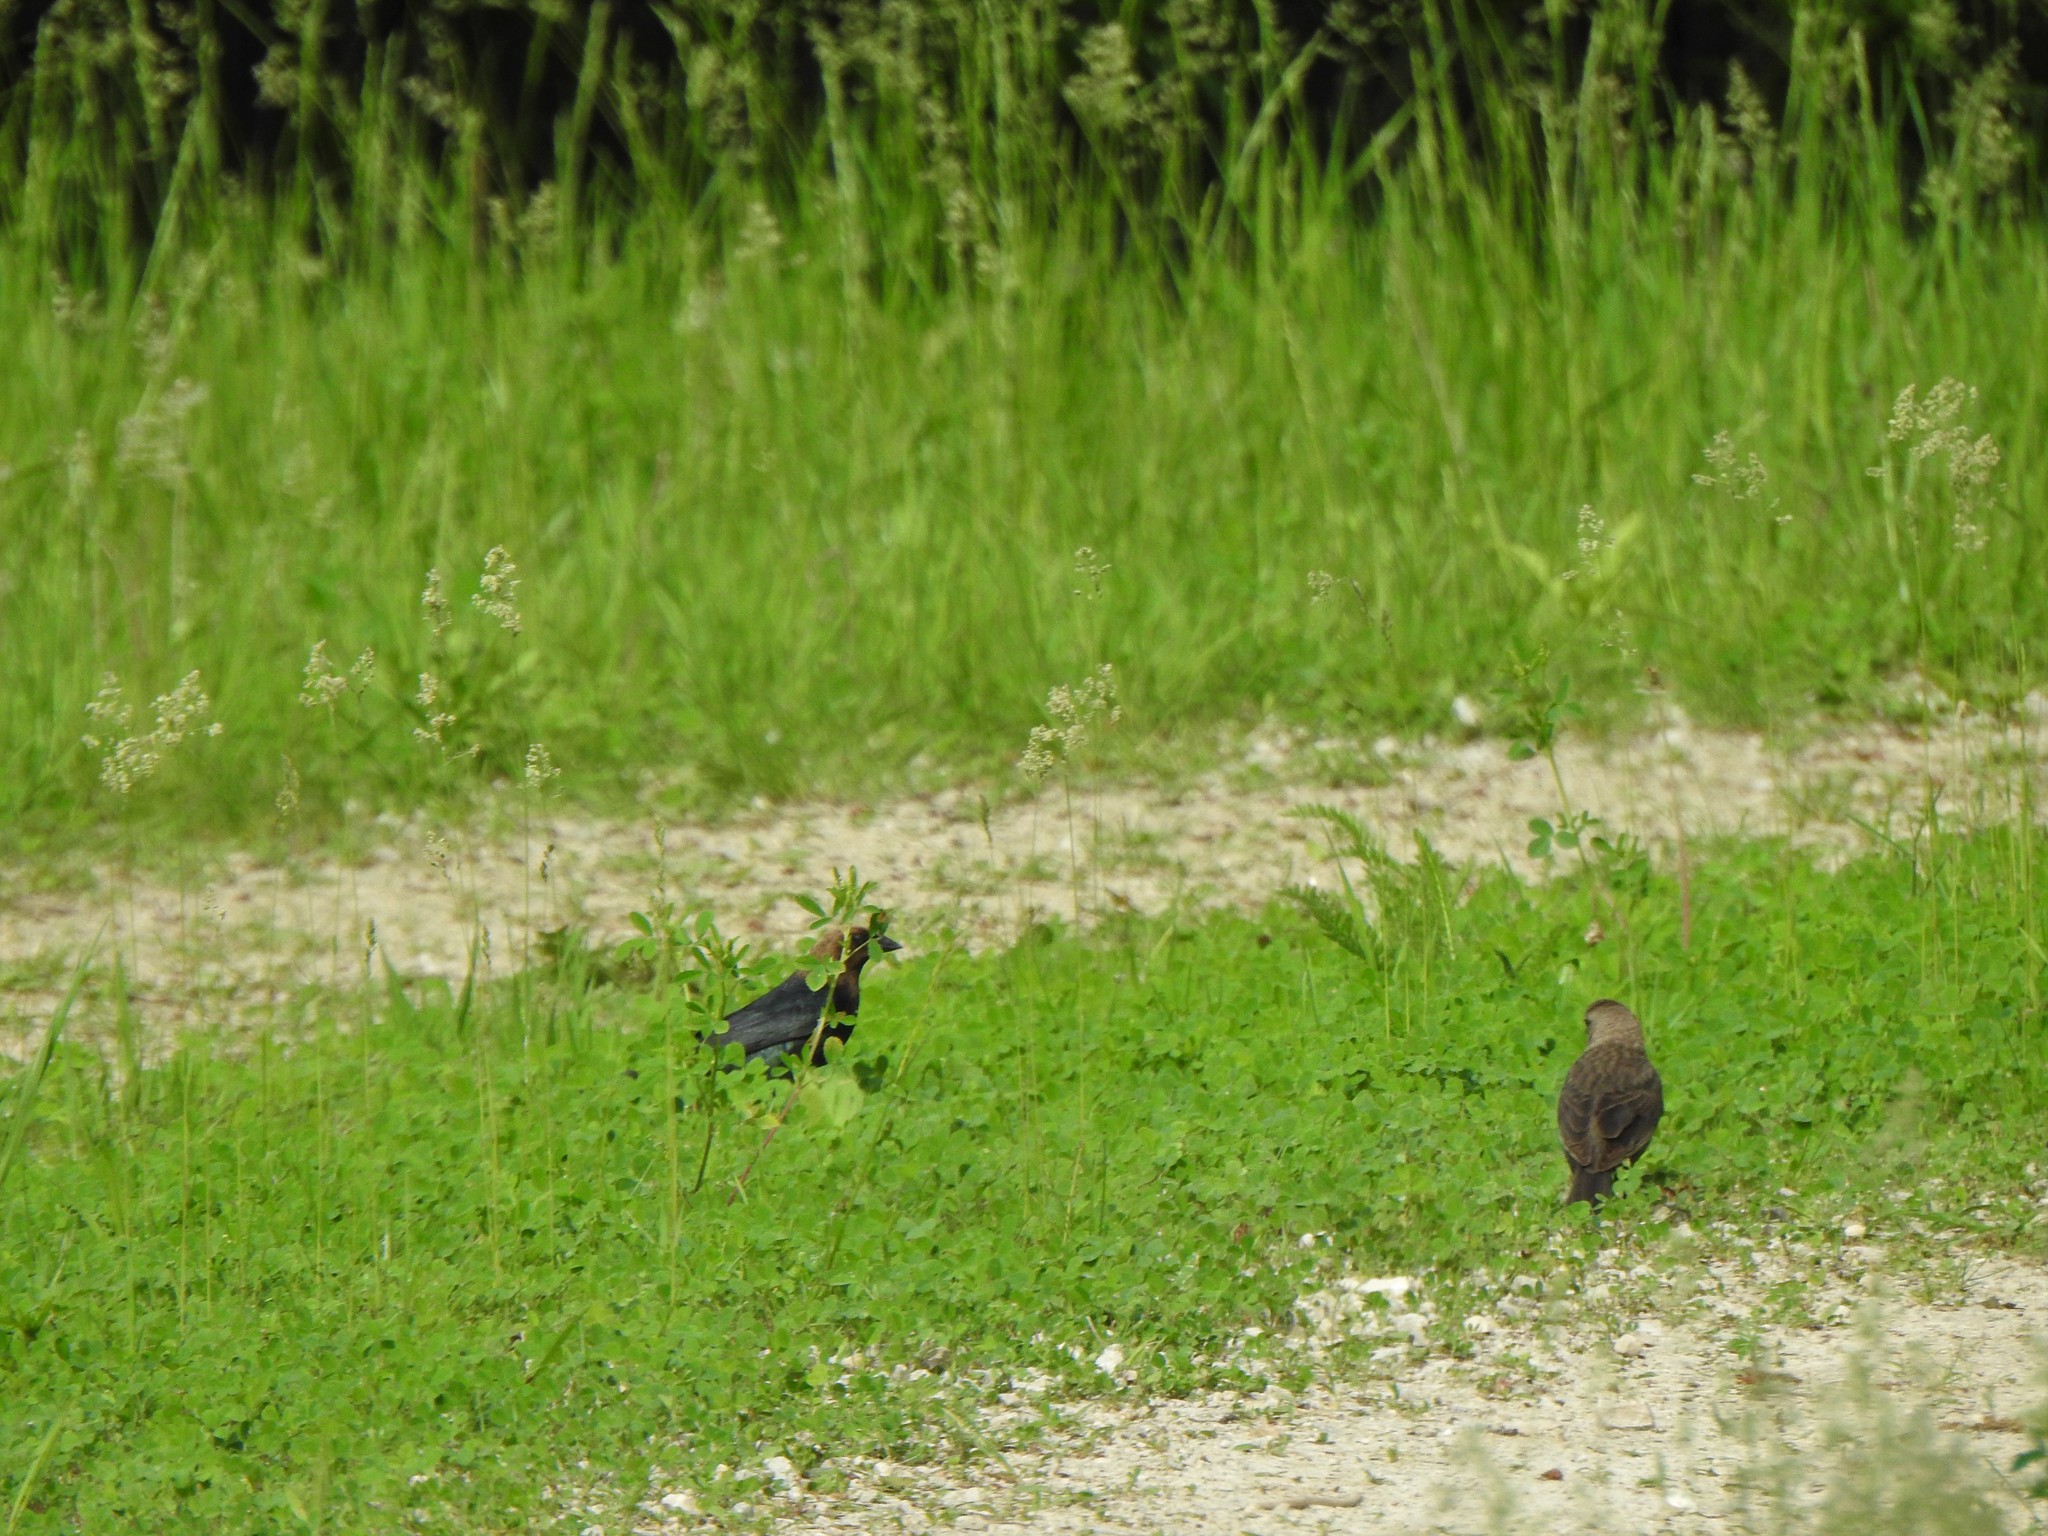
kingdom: Animalia
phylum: Chordata
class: Aves
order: Passeriformes
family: Icteridae
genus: Molothrus
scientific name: Molothrus ater
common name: Brown-headed cowbird
